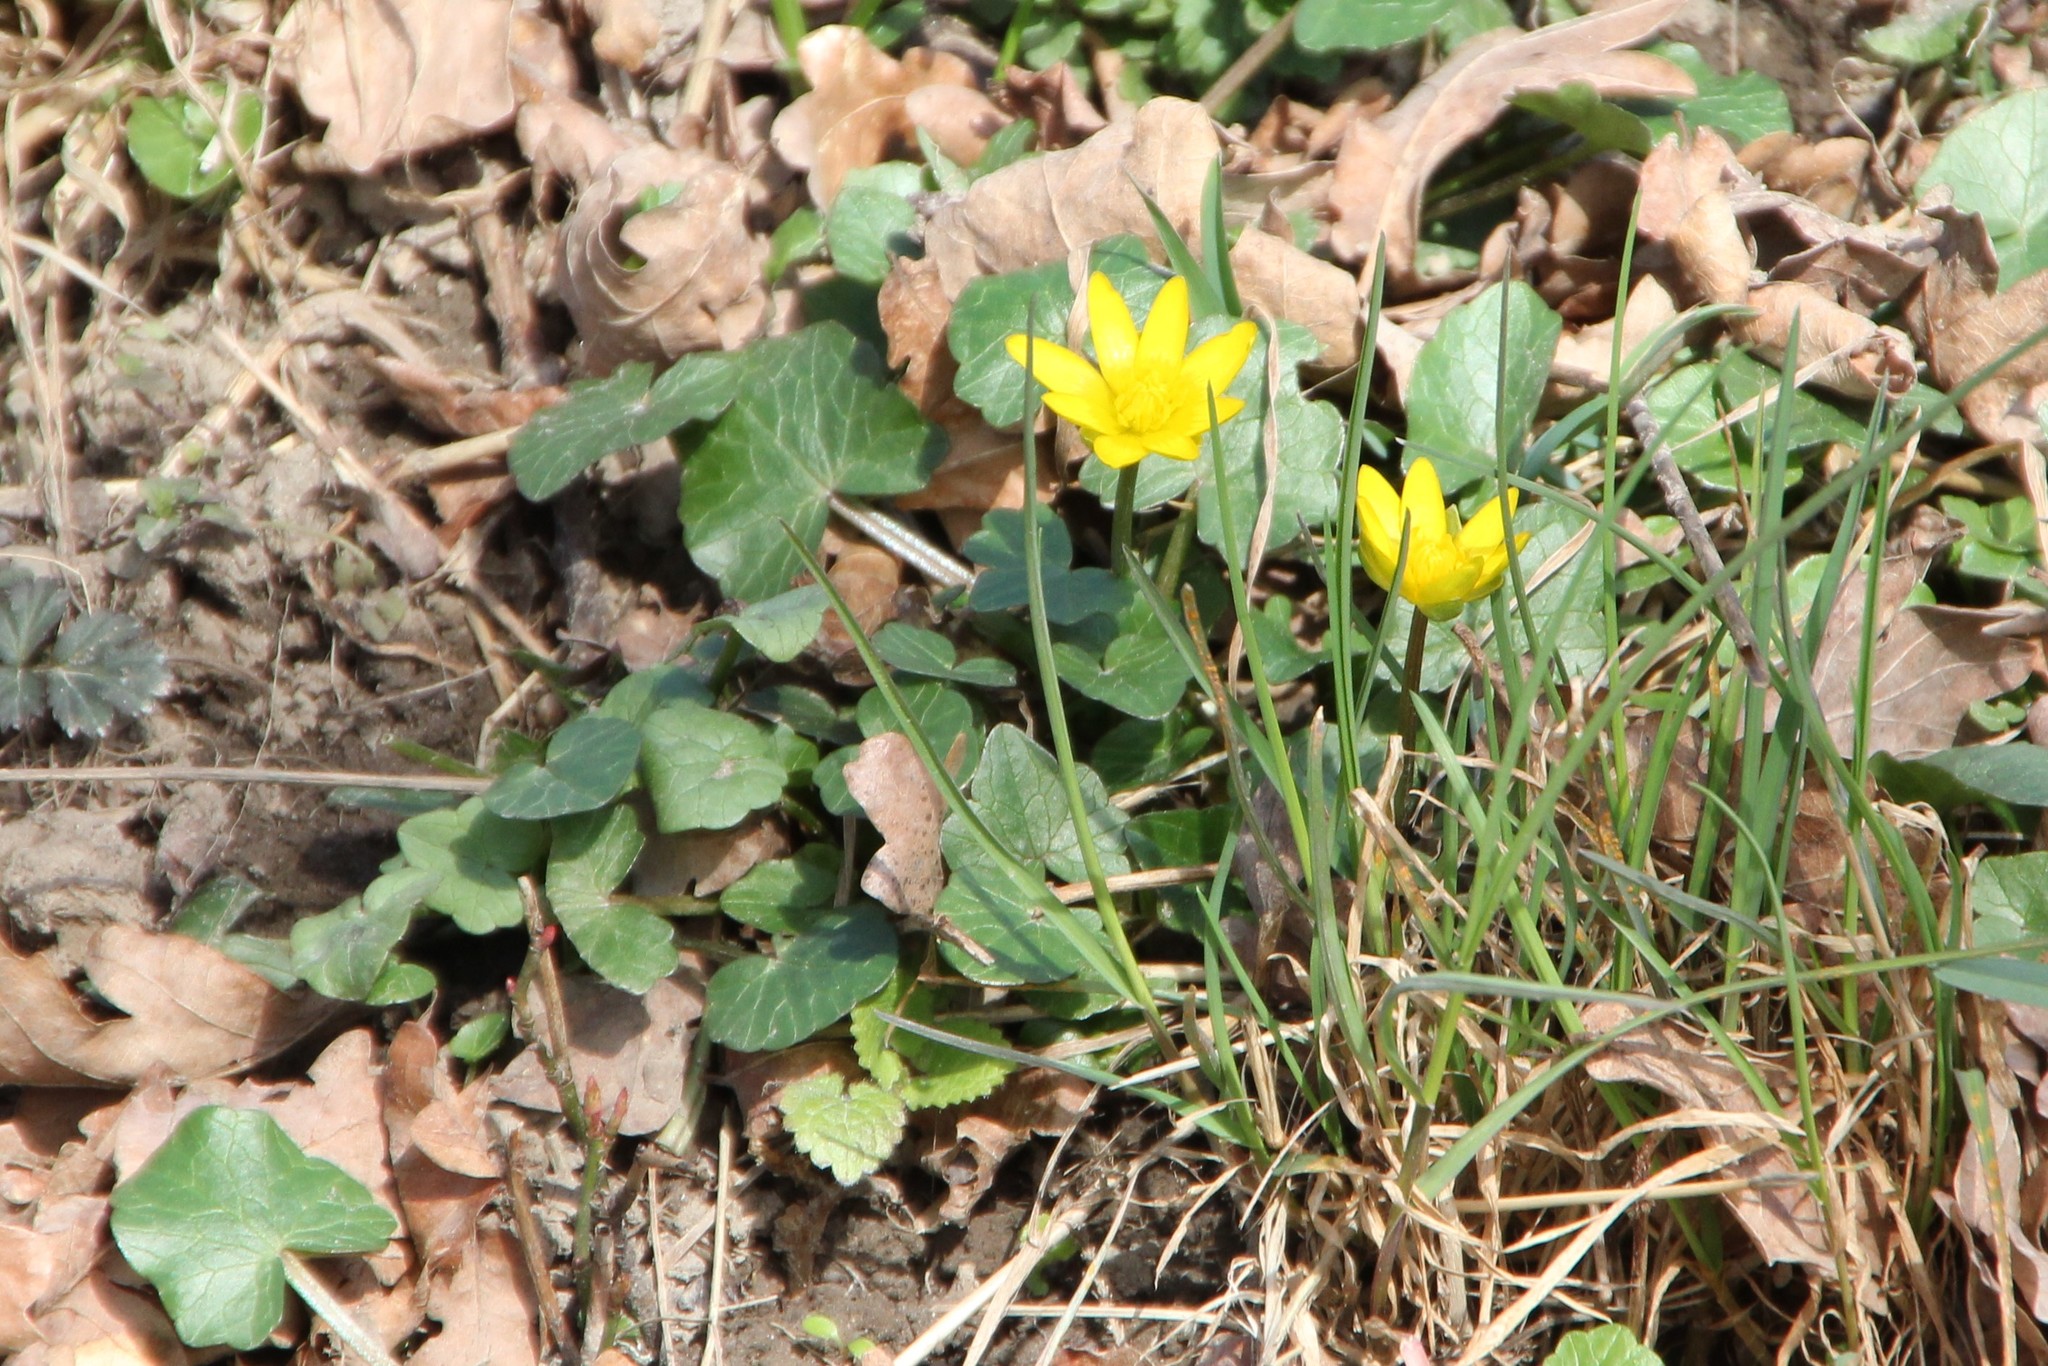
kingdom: Plantae
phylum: Tracheophyta
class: Magnoliopsida
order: Ranunculales
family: Ranunculaceae
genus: Ficaria
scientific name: Ficaria verna
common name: Lesser celandine
